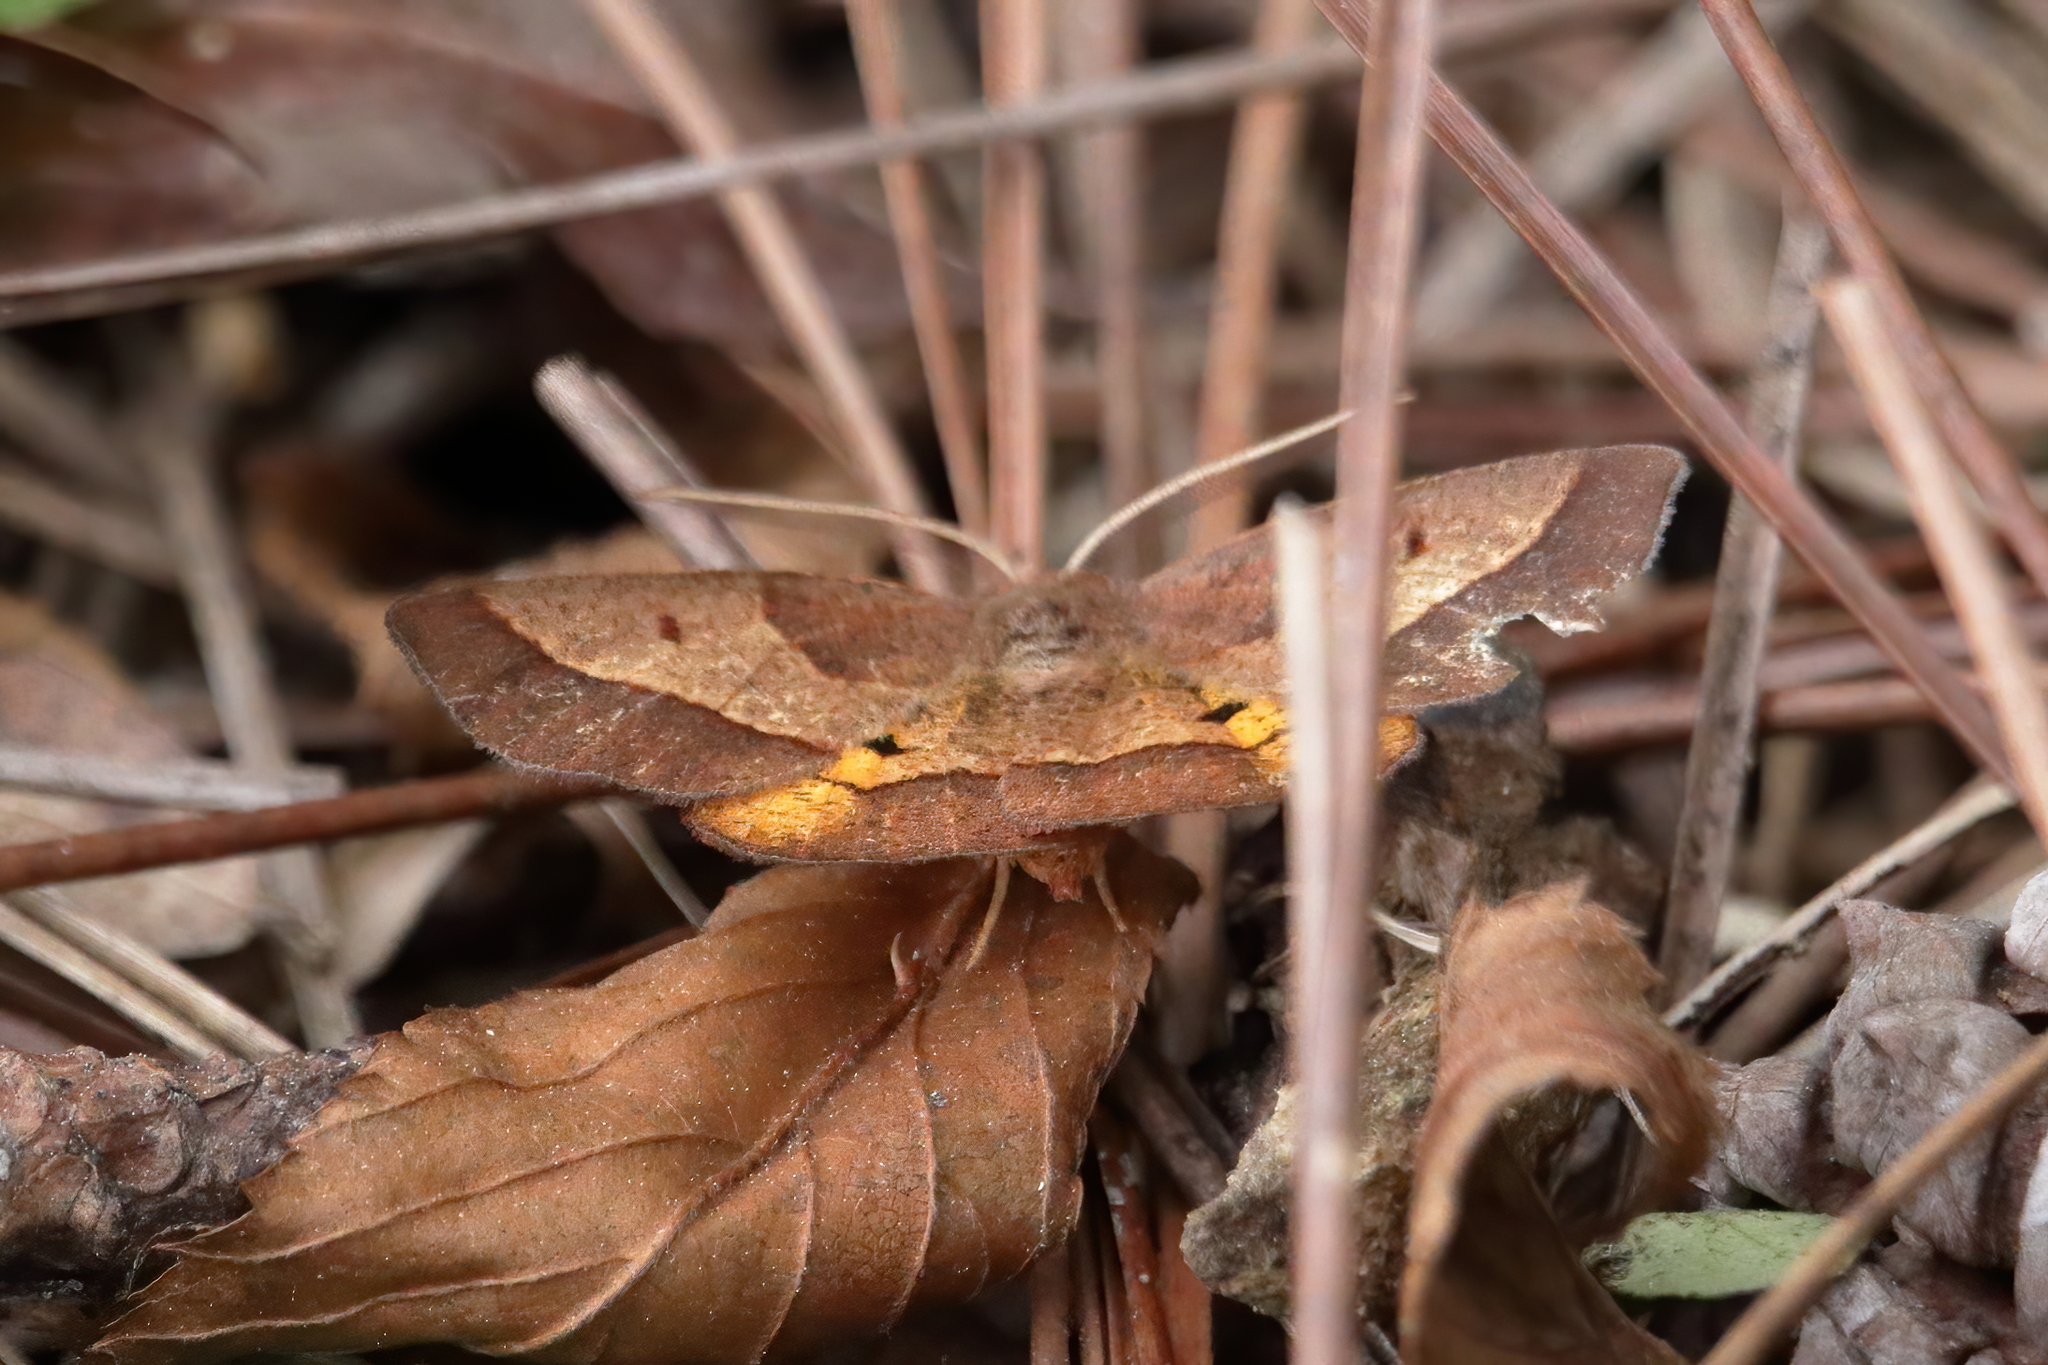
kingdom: Animalia
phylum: Arthropoda
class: Insecta
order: Lepidoptera
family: Geometridae
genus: Metarranthis
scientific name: Metarranthis obfirmaria
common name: Yellow-washed metarranthis
